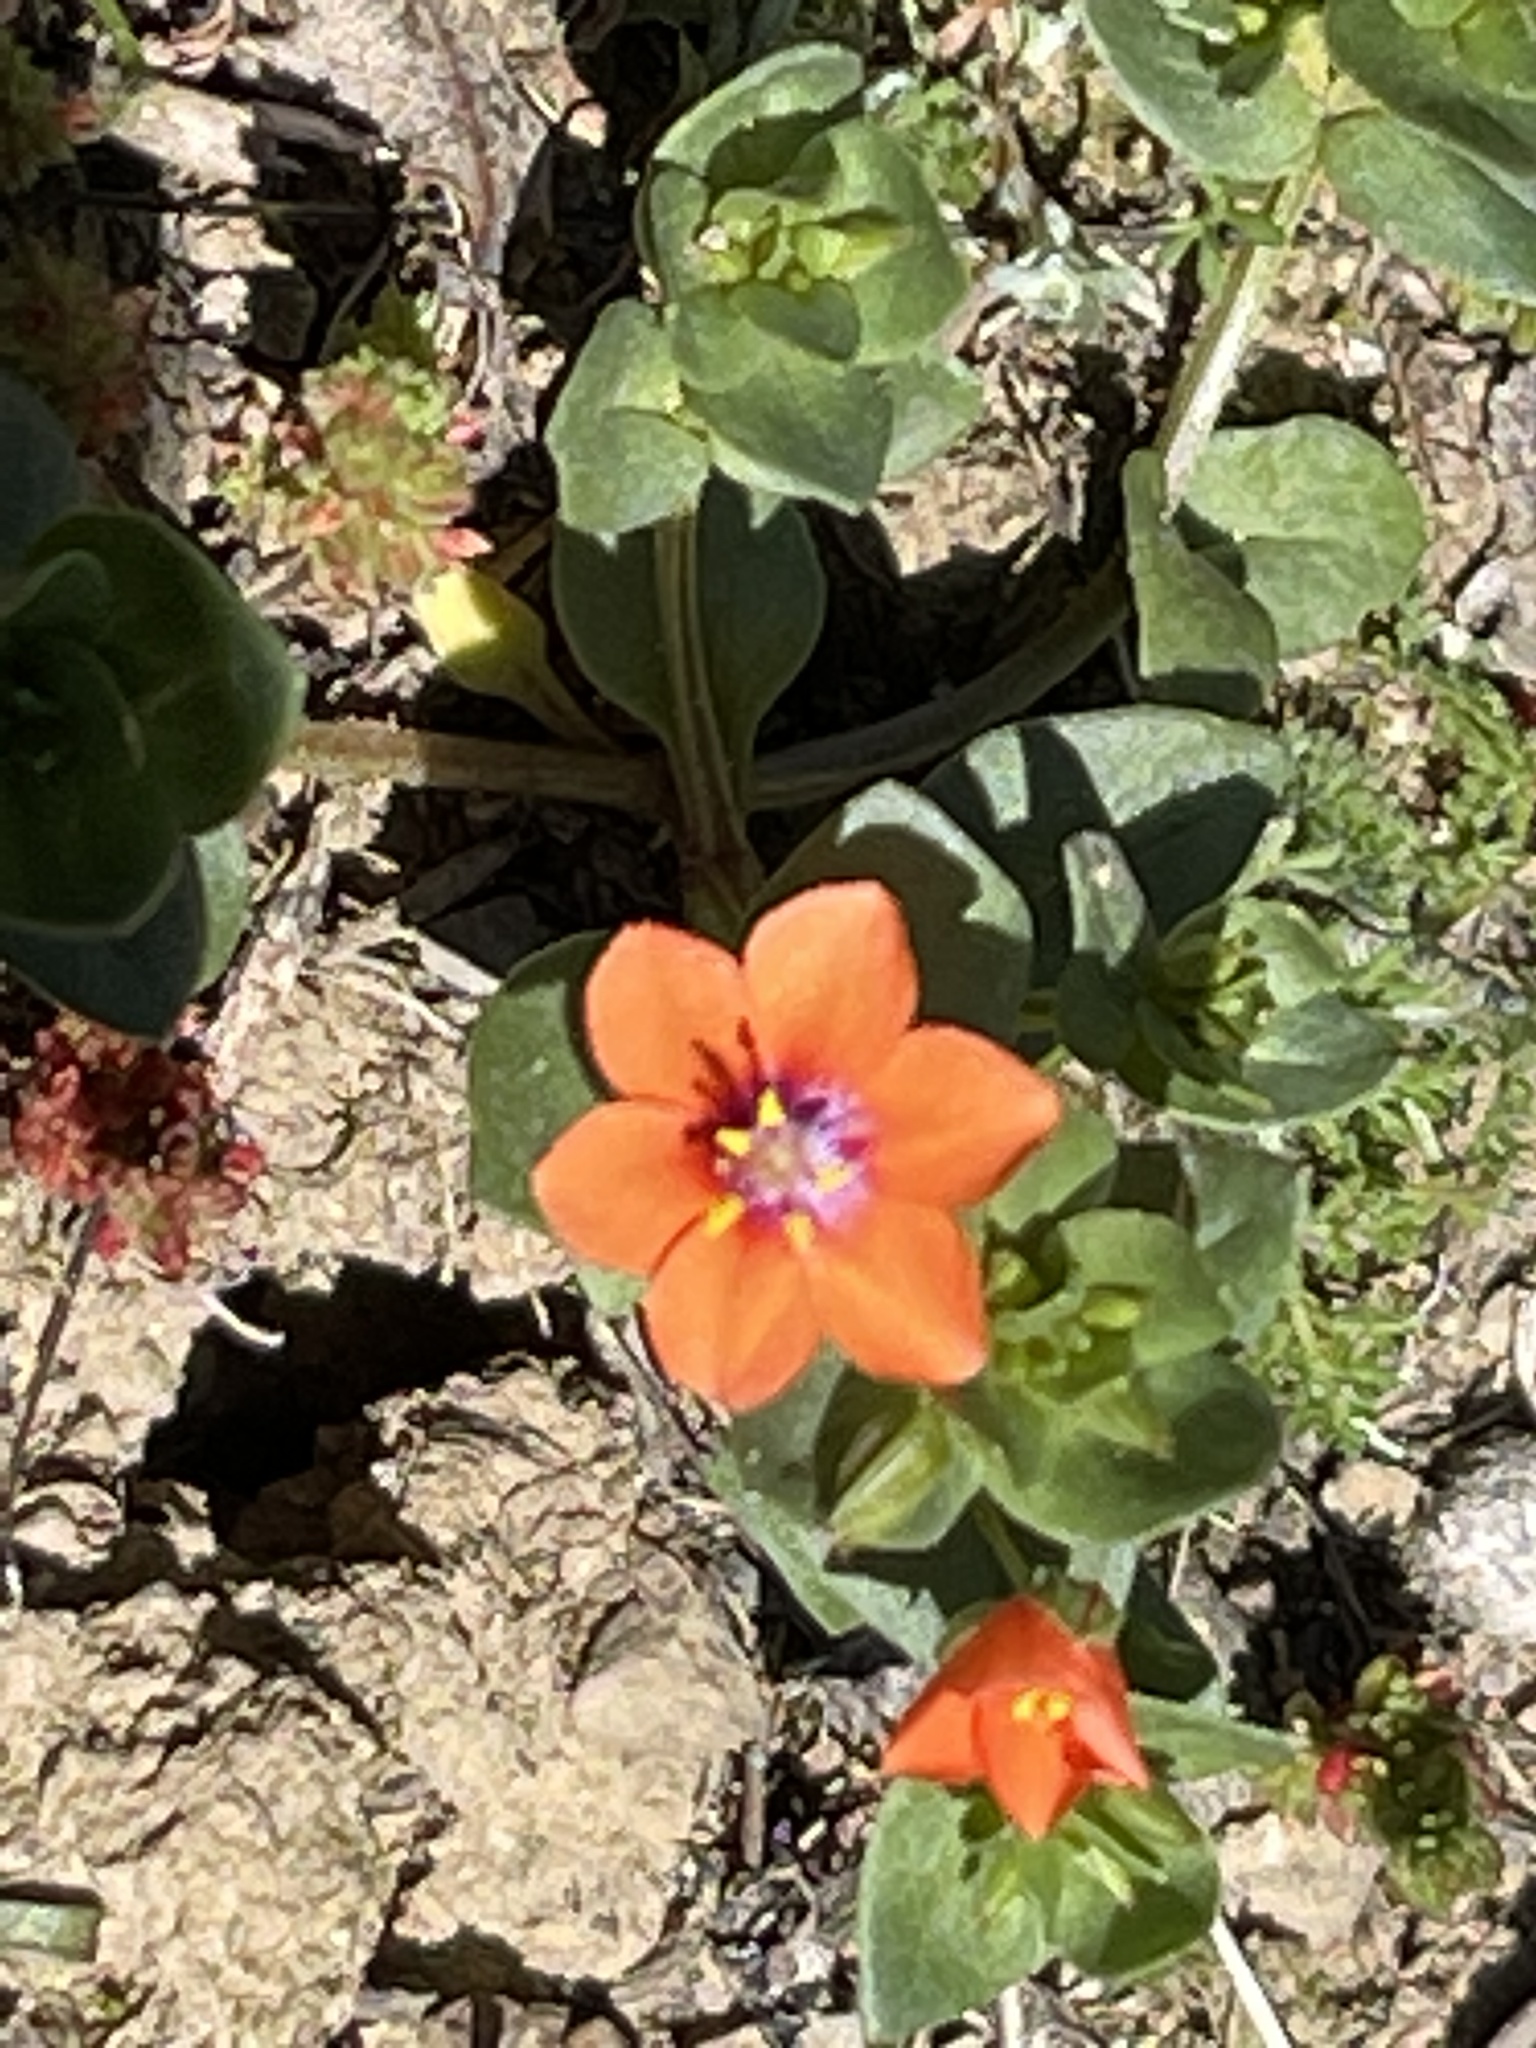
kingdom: Plantae
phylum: Tracheophyta
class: Magnoliopsida
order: Ericales
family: Primulaceae
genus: Lysimachia
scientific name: Lysimachia arvensis
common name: Scarlet pimpernel
